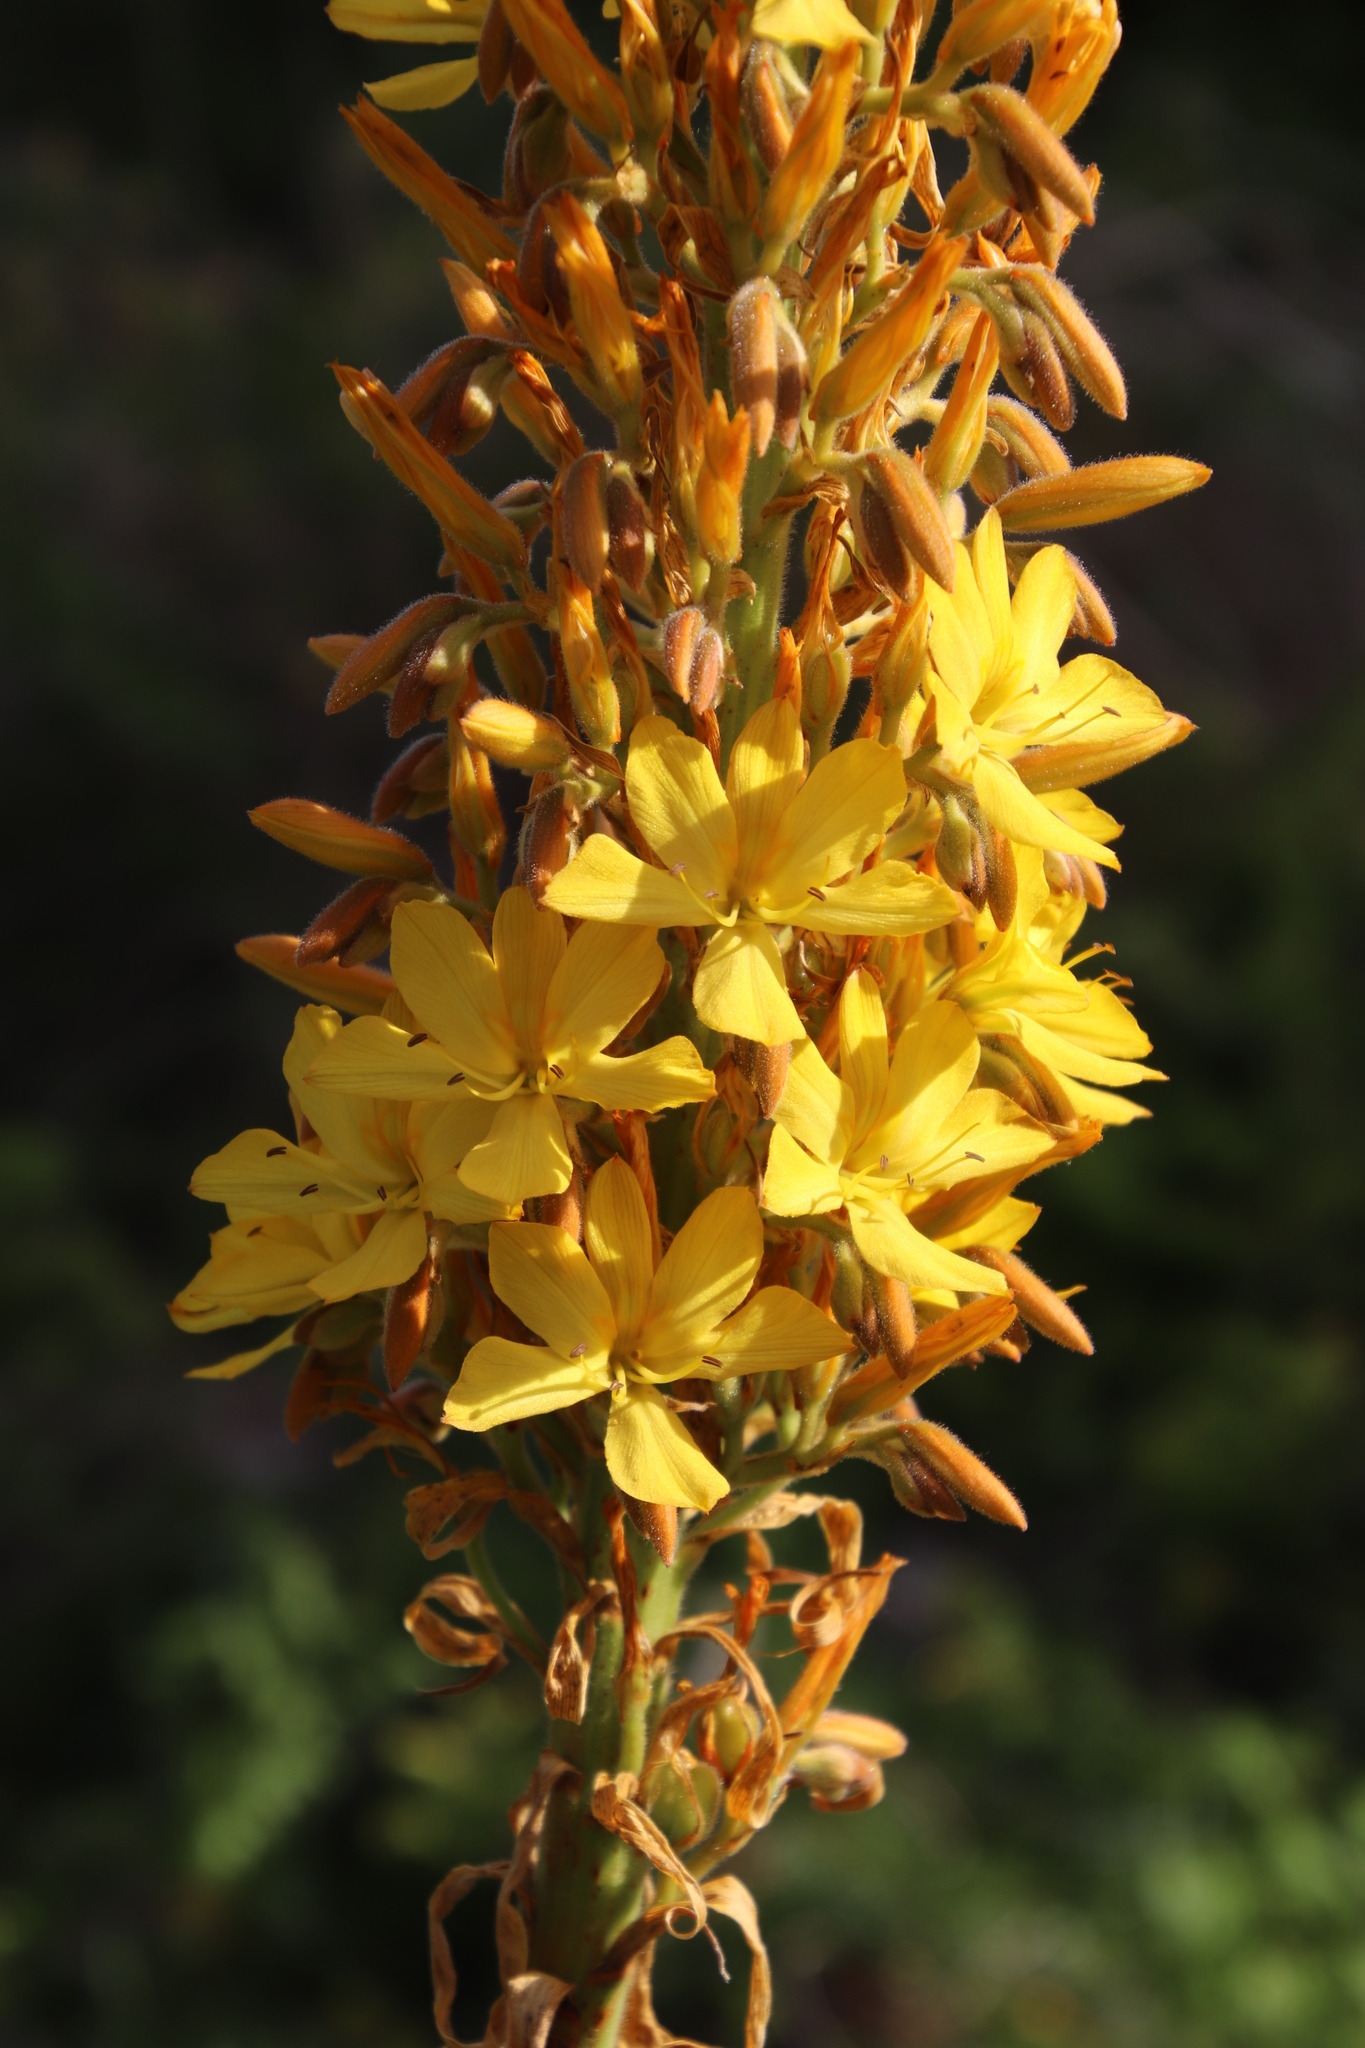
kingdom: Plantae
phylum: Tracheophyta
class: Liliopsida
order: Commelinales
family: Haemodoraceae
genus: Wachendorfia
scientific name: Wachendorfia thyrsiflora
